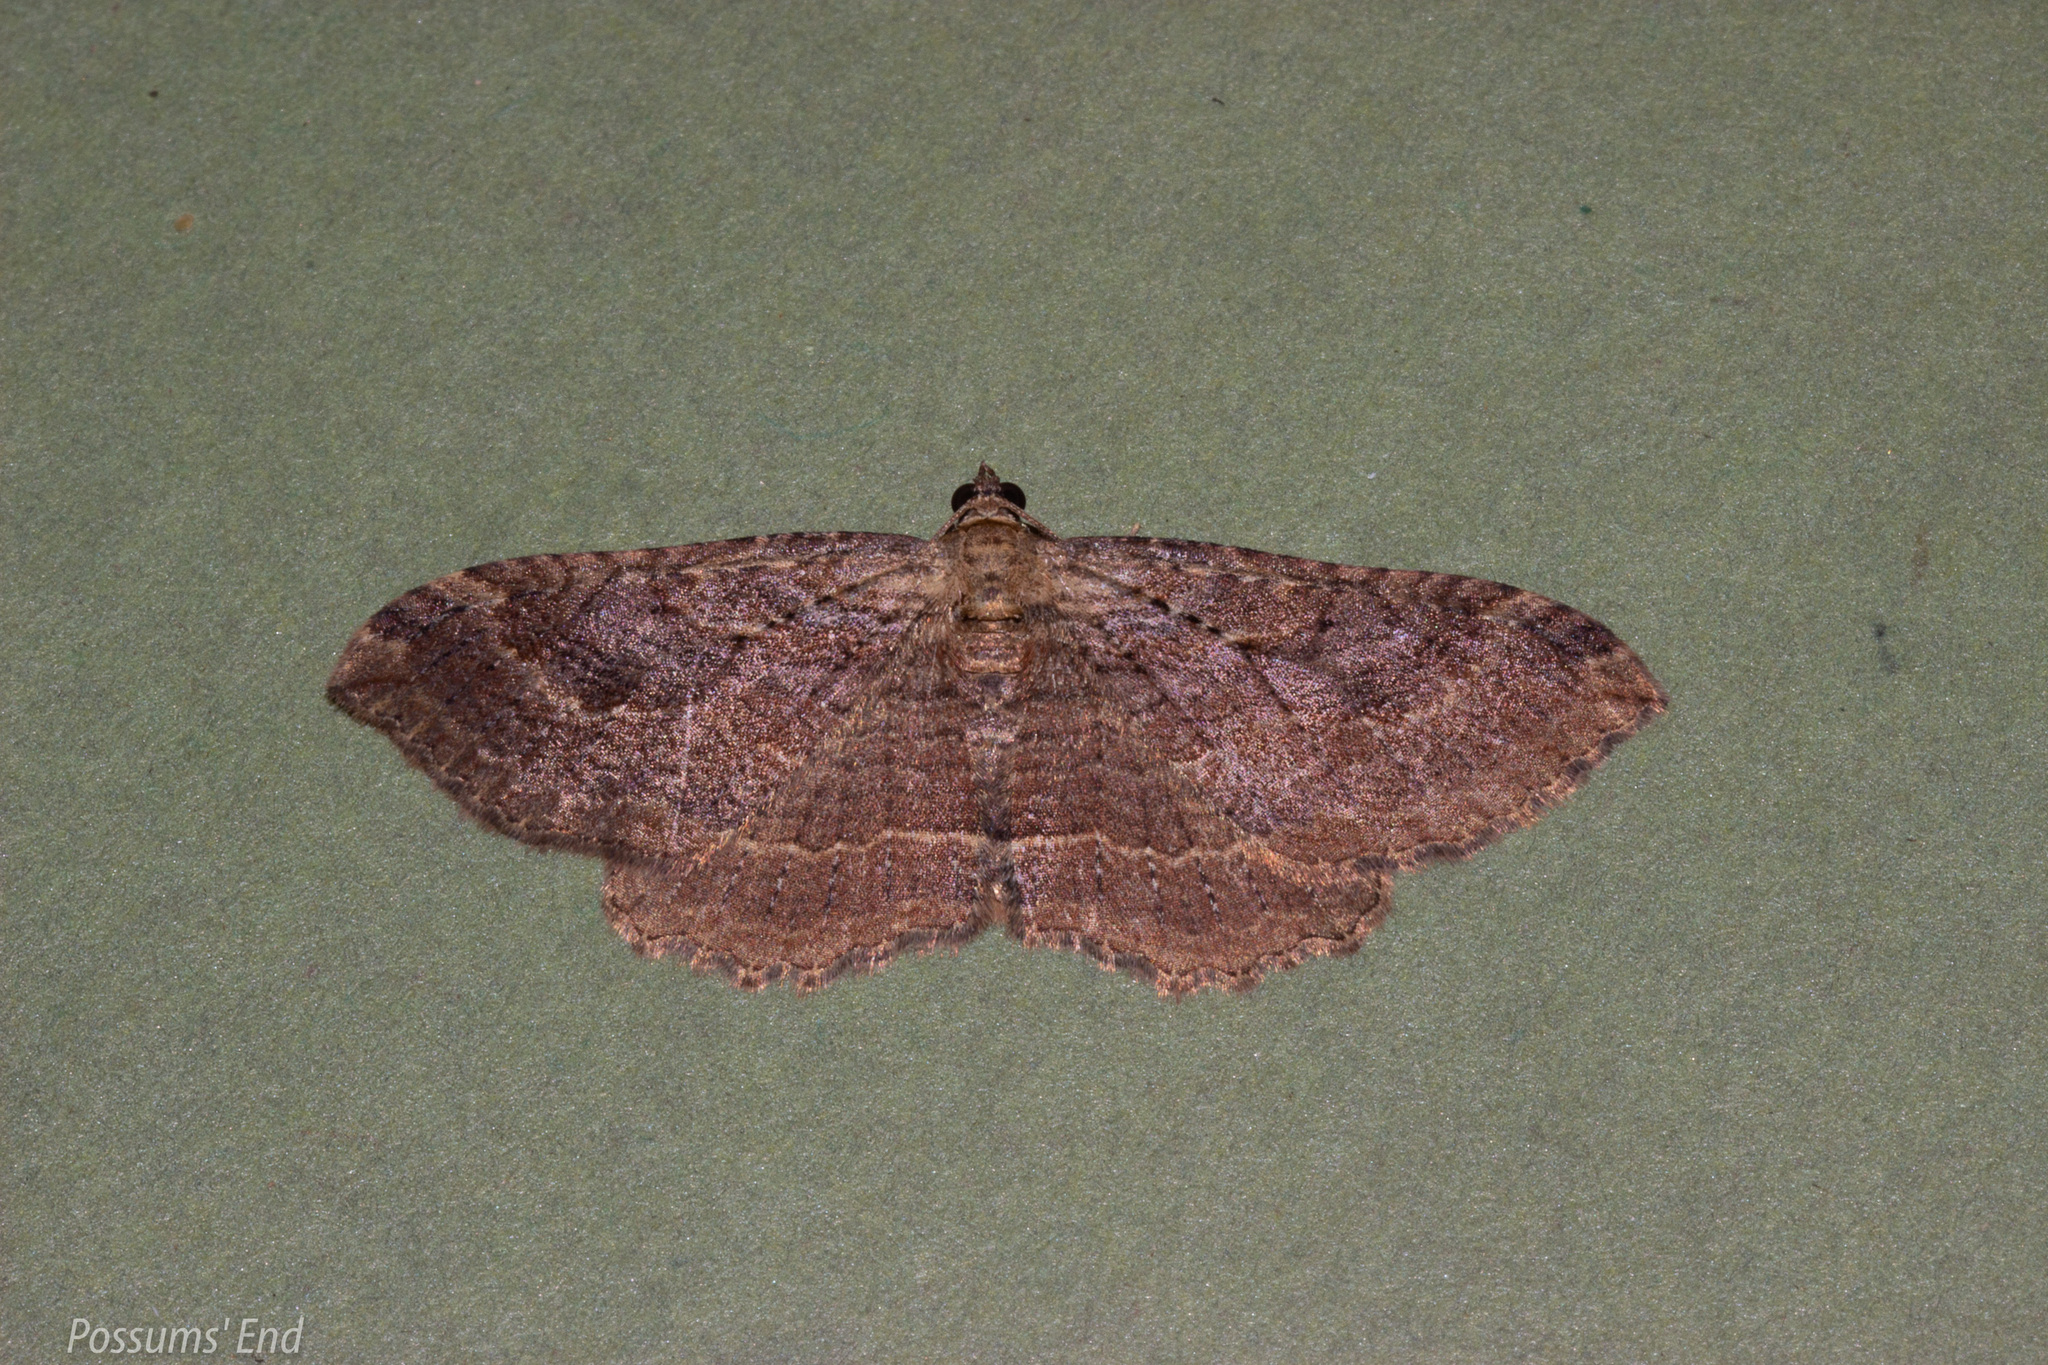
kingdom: Animalia
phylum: Arthropoda
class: Insecta
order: Lepidoptera
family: Geometridae
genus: Austrocidaria
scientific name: Austrocidaria gobiata
